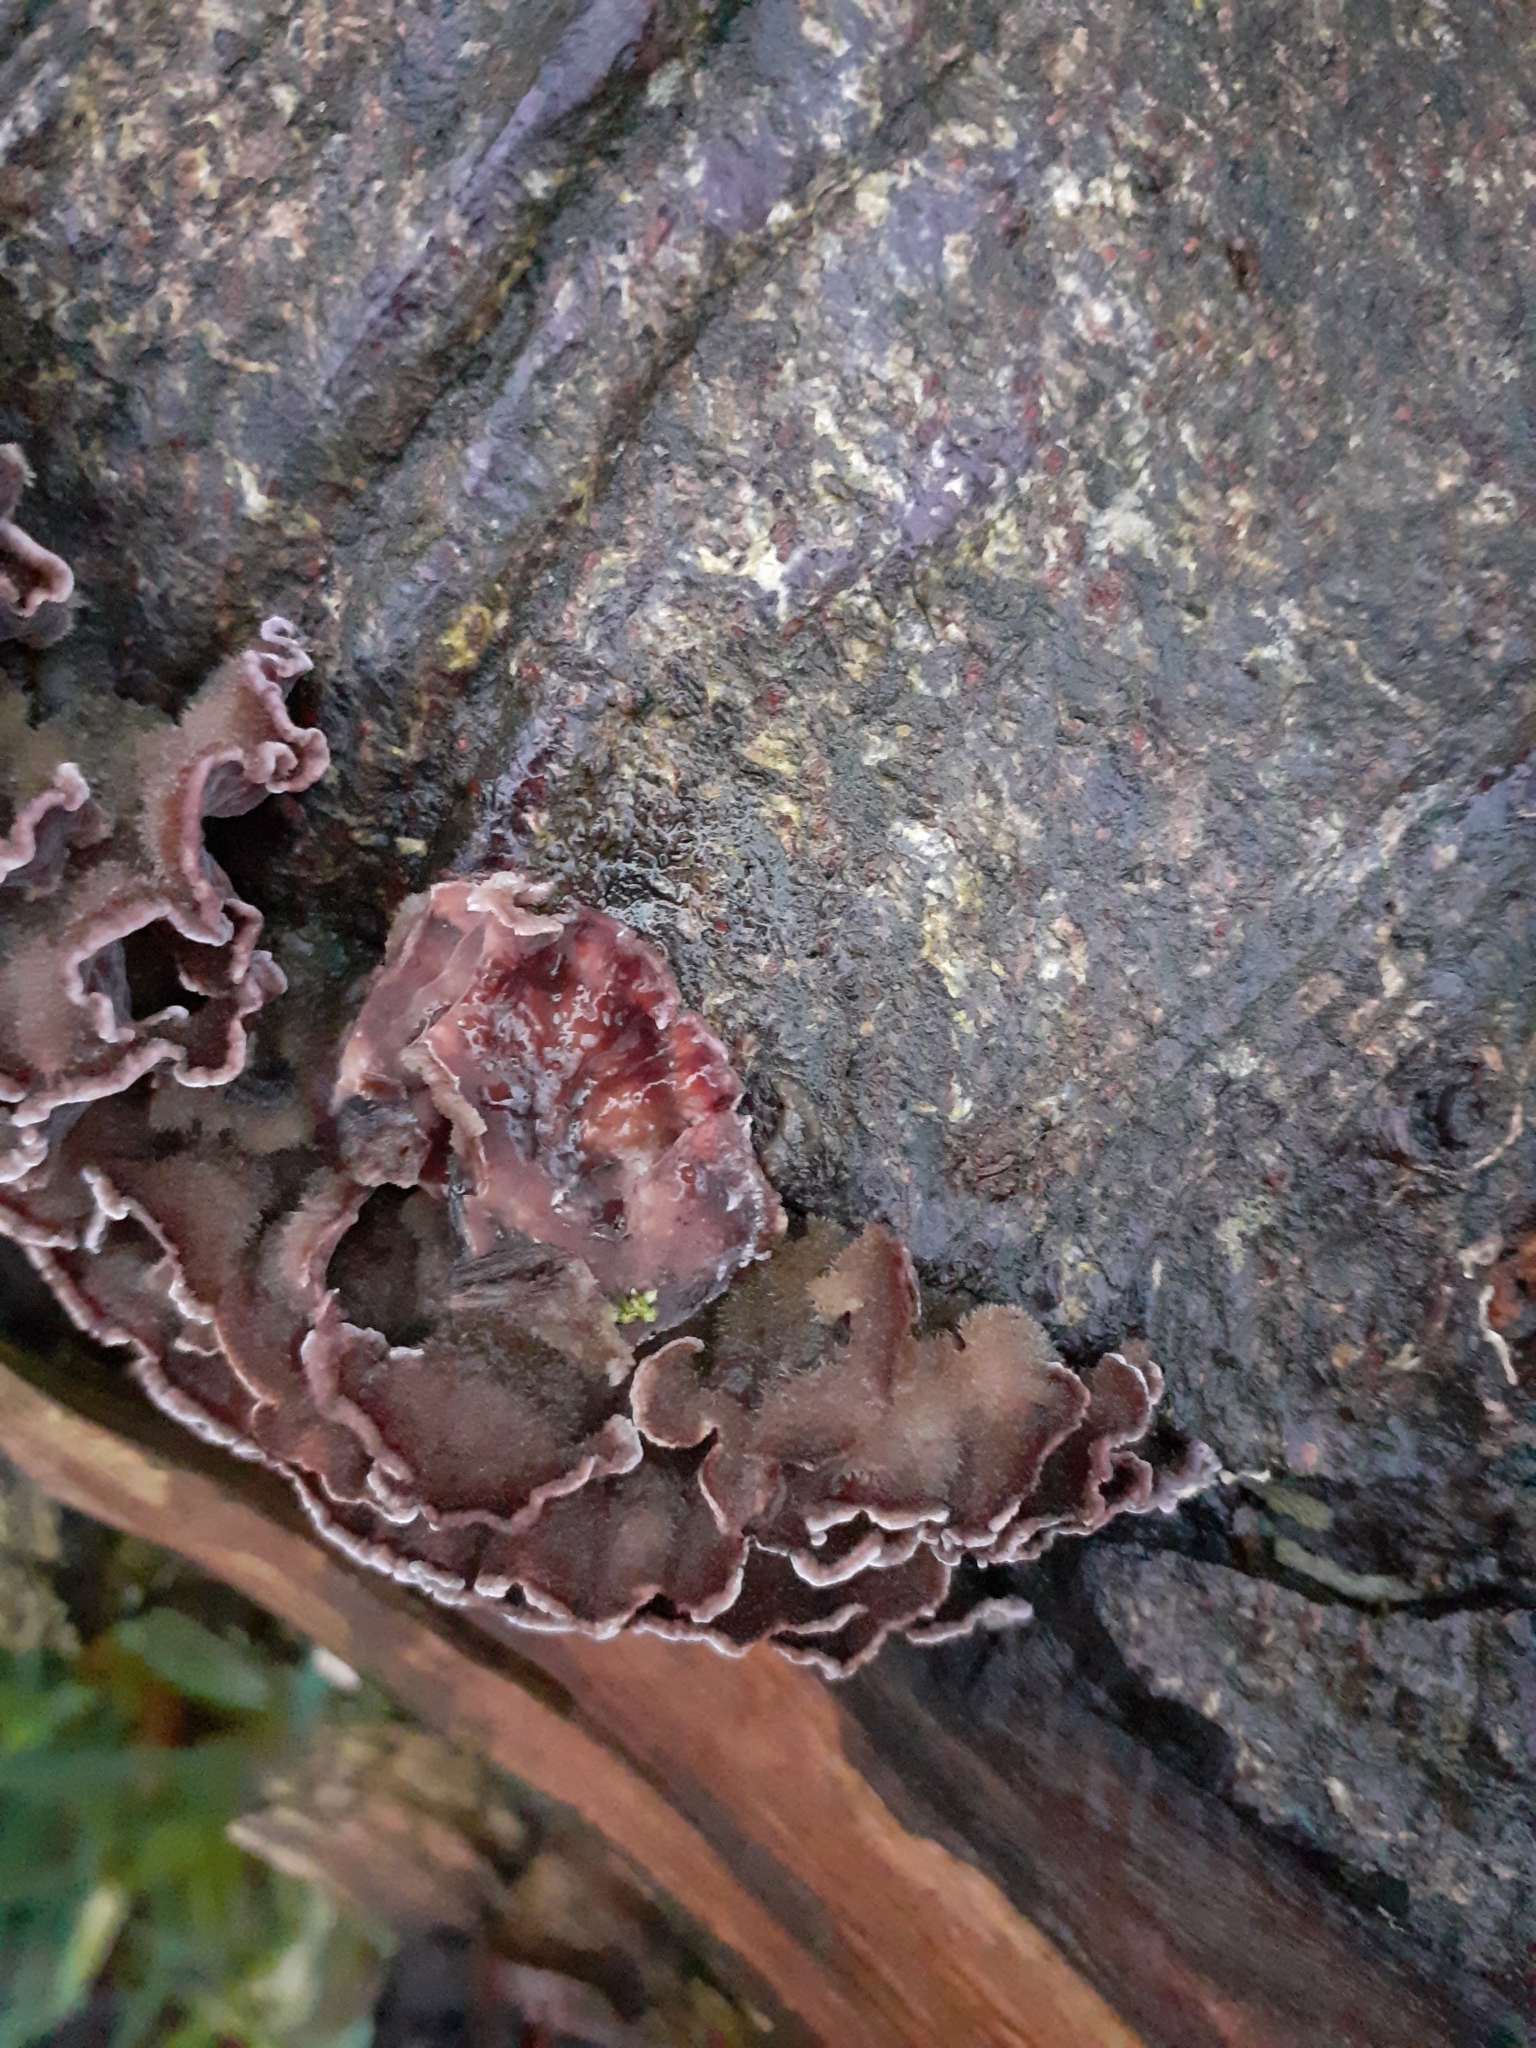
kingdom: Fungi
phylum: Basidiomycota
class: Agaricomycetes
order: Agaricales
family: Cyphellaceae
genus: Chondrostereum
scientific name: Chondrostereum purpureum
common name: Silver leaf disease
